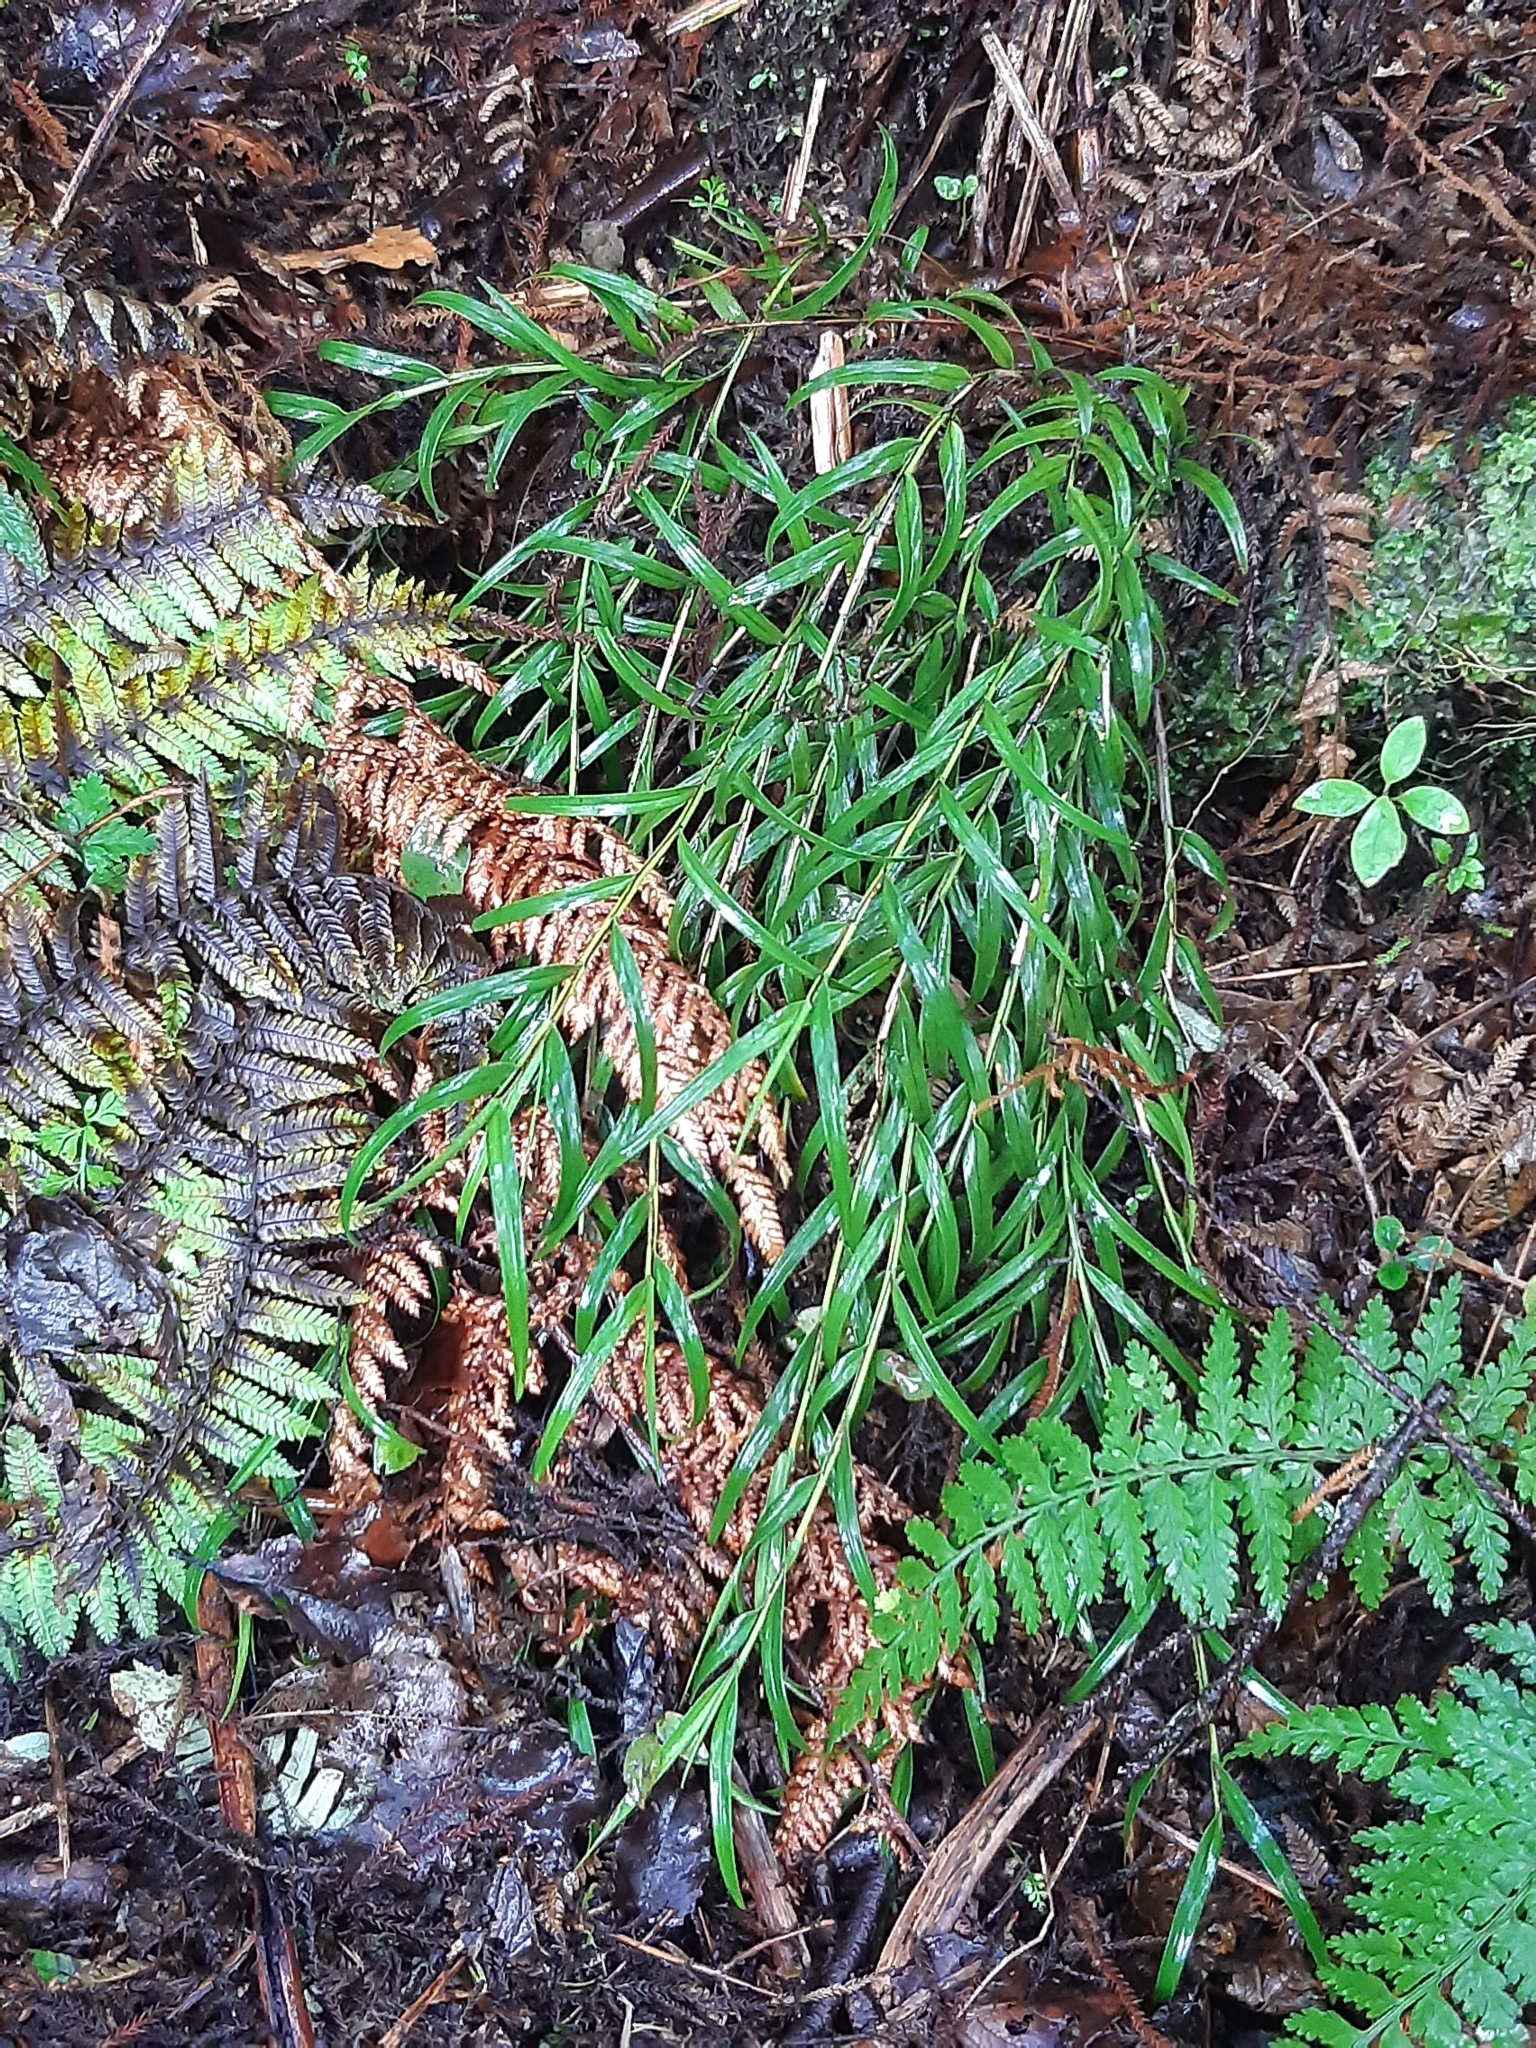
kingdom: Plantae
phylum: Tracheophyta
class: Liliopsida
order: Asparagales
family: Orchidaceae
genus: Earina
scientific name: Earina autumnalis
